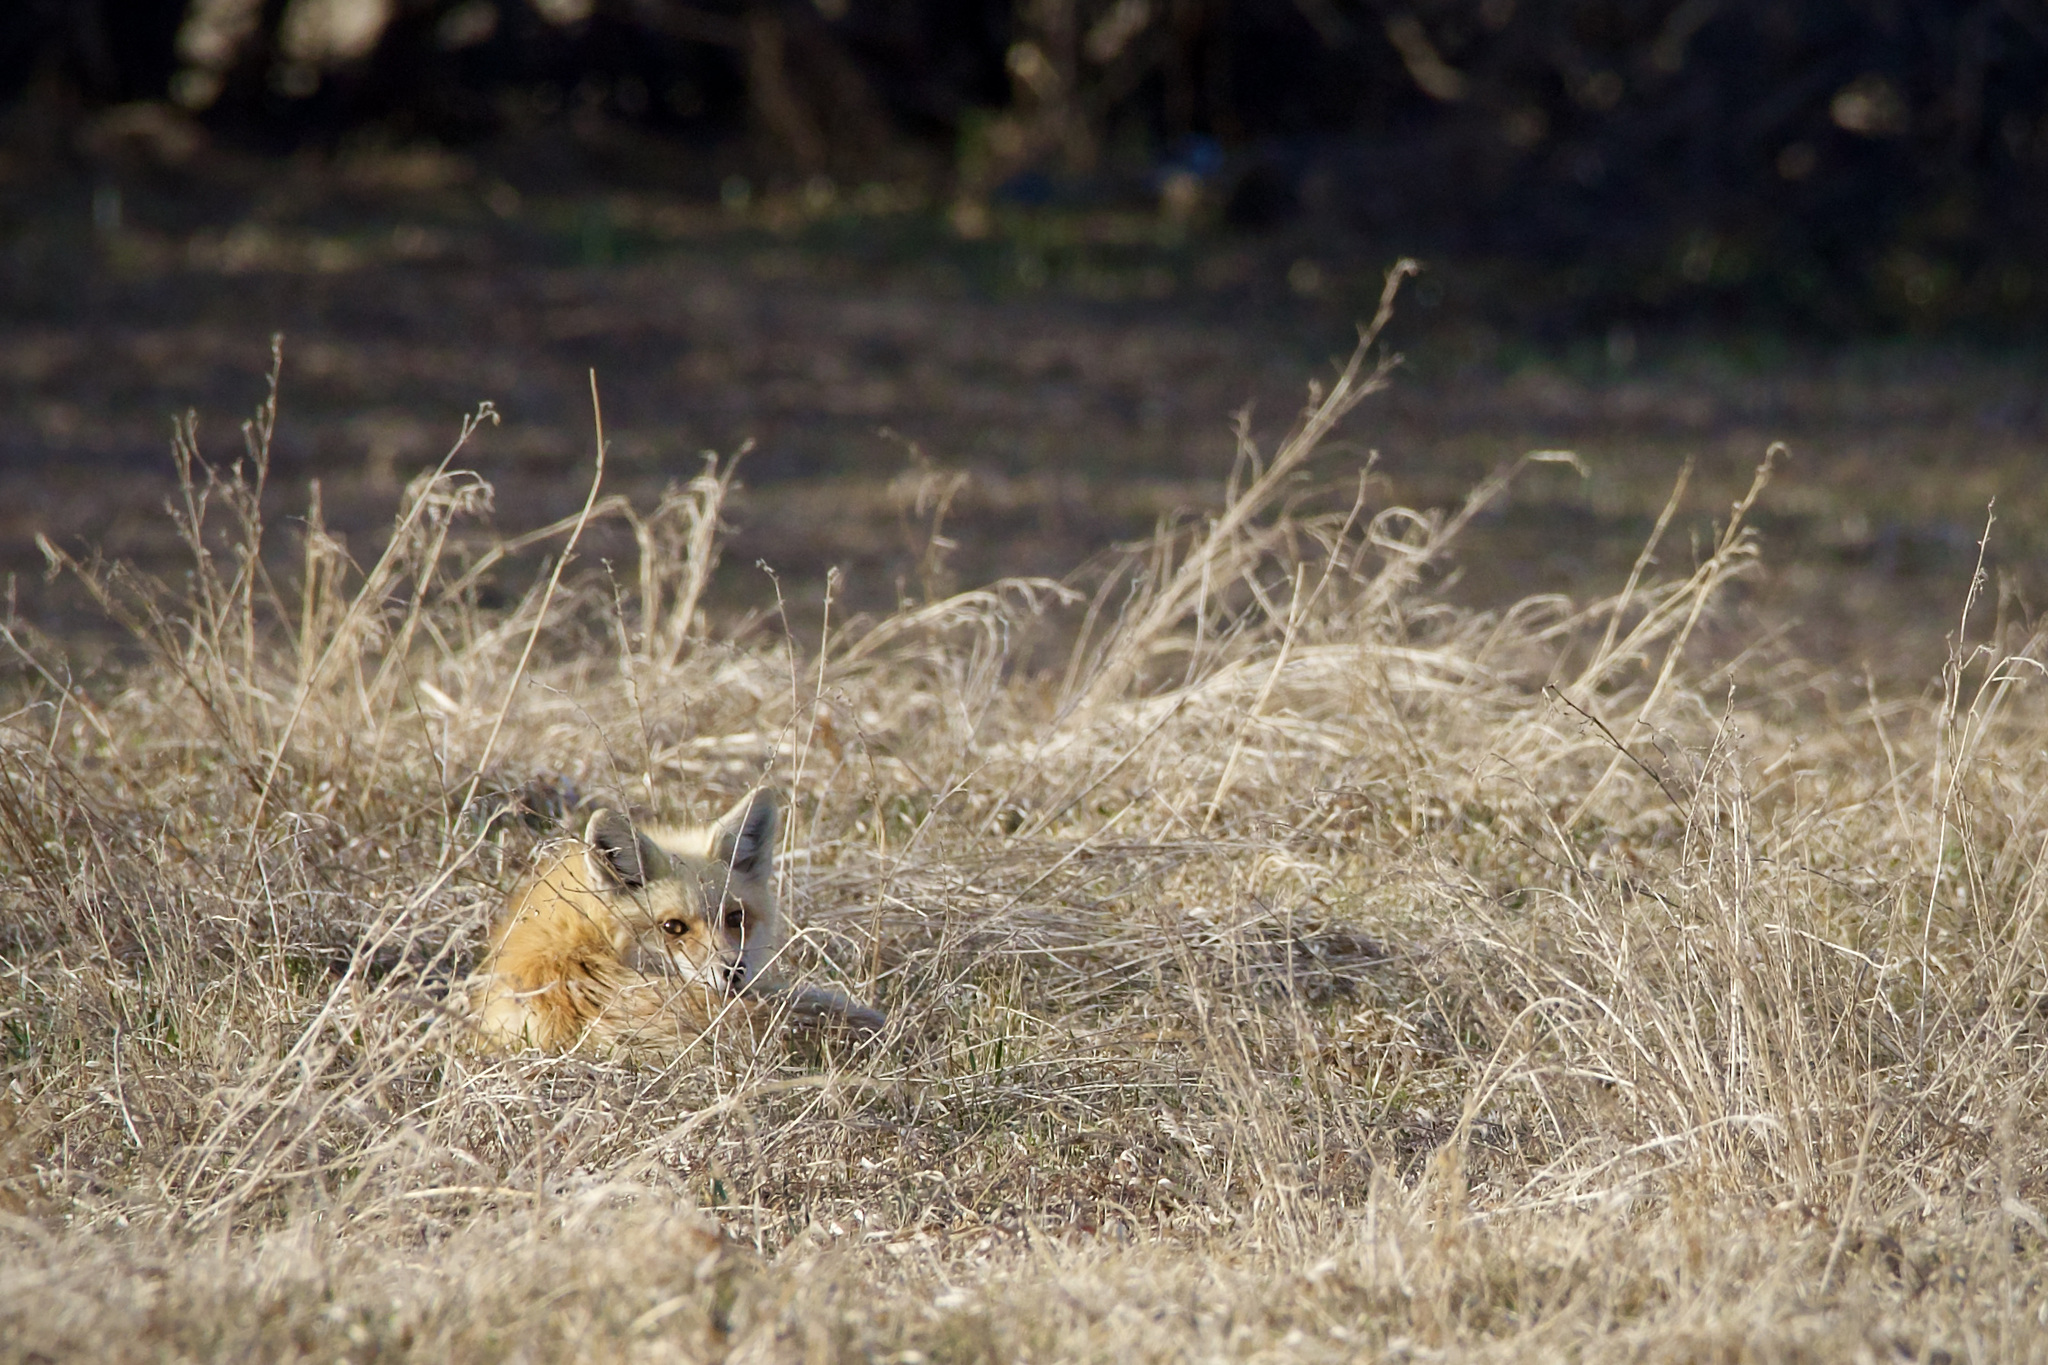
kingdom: Animalia
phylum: Chordata
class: Mammalia
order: Carnivora
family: Canidae
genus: Vulpes
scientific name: Vulpes vulpes
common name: Red fox
